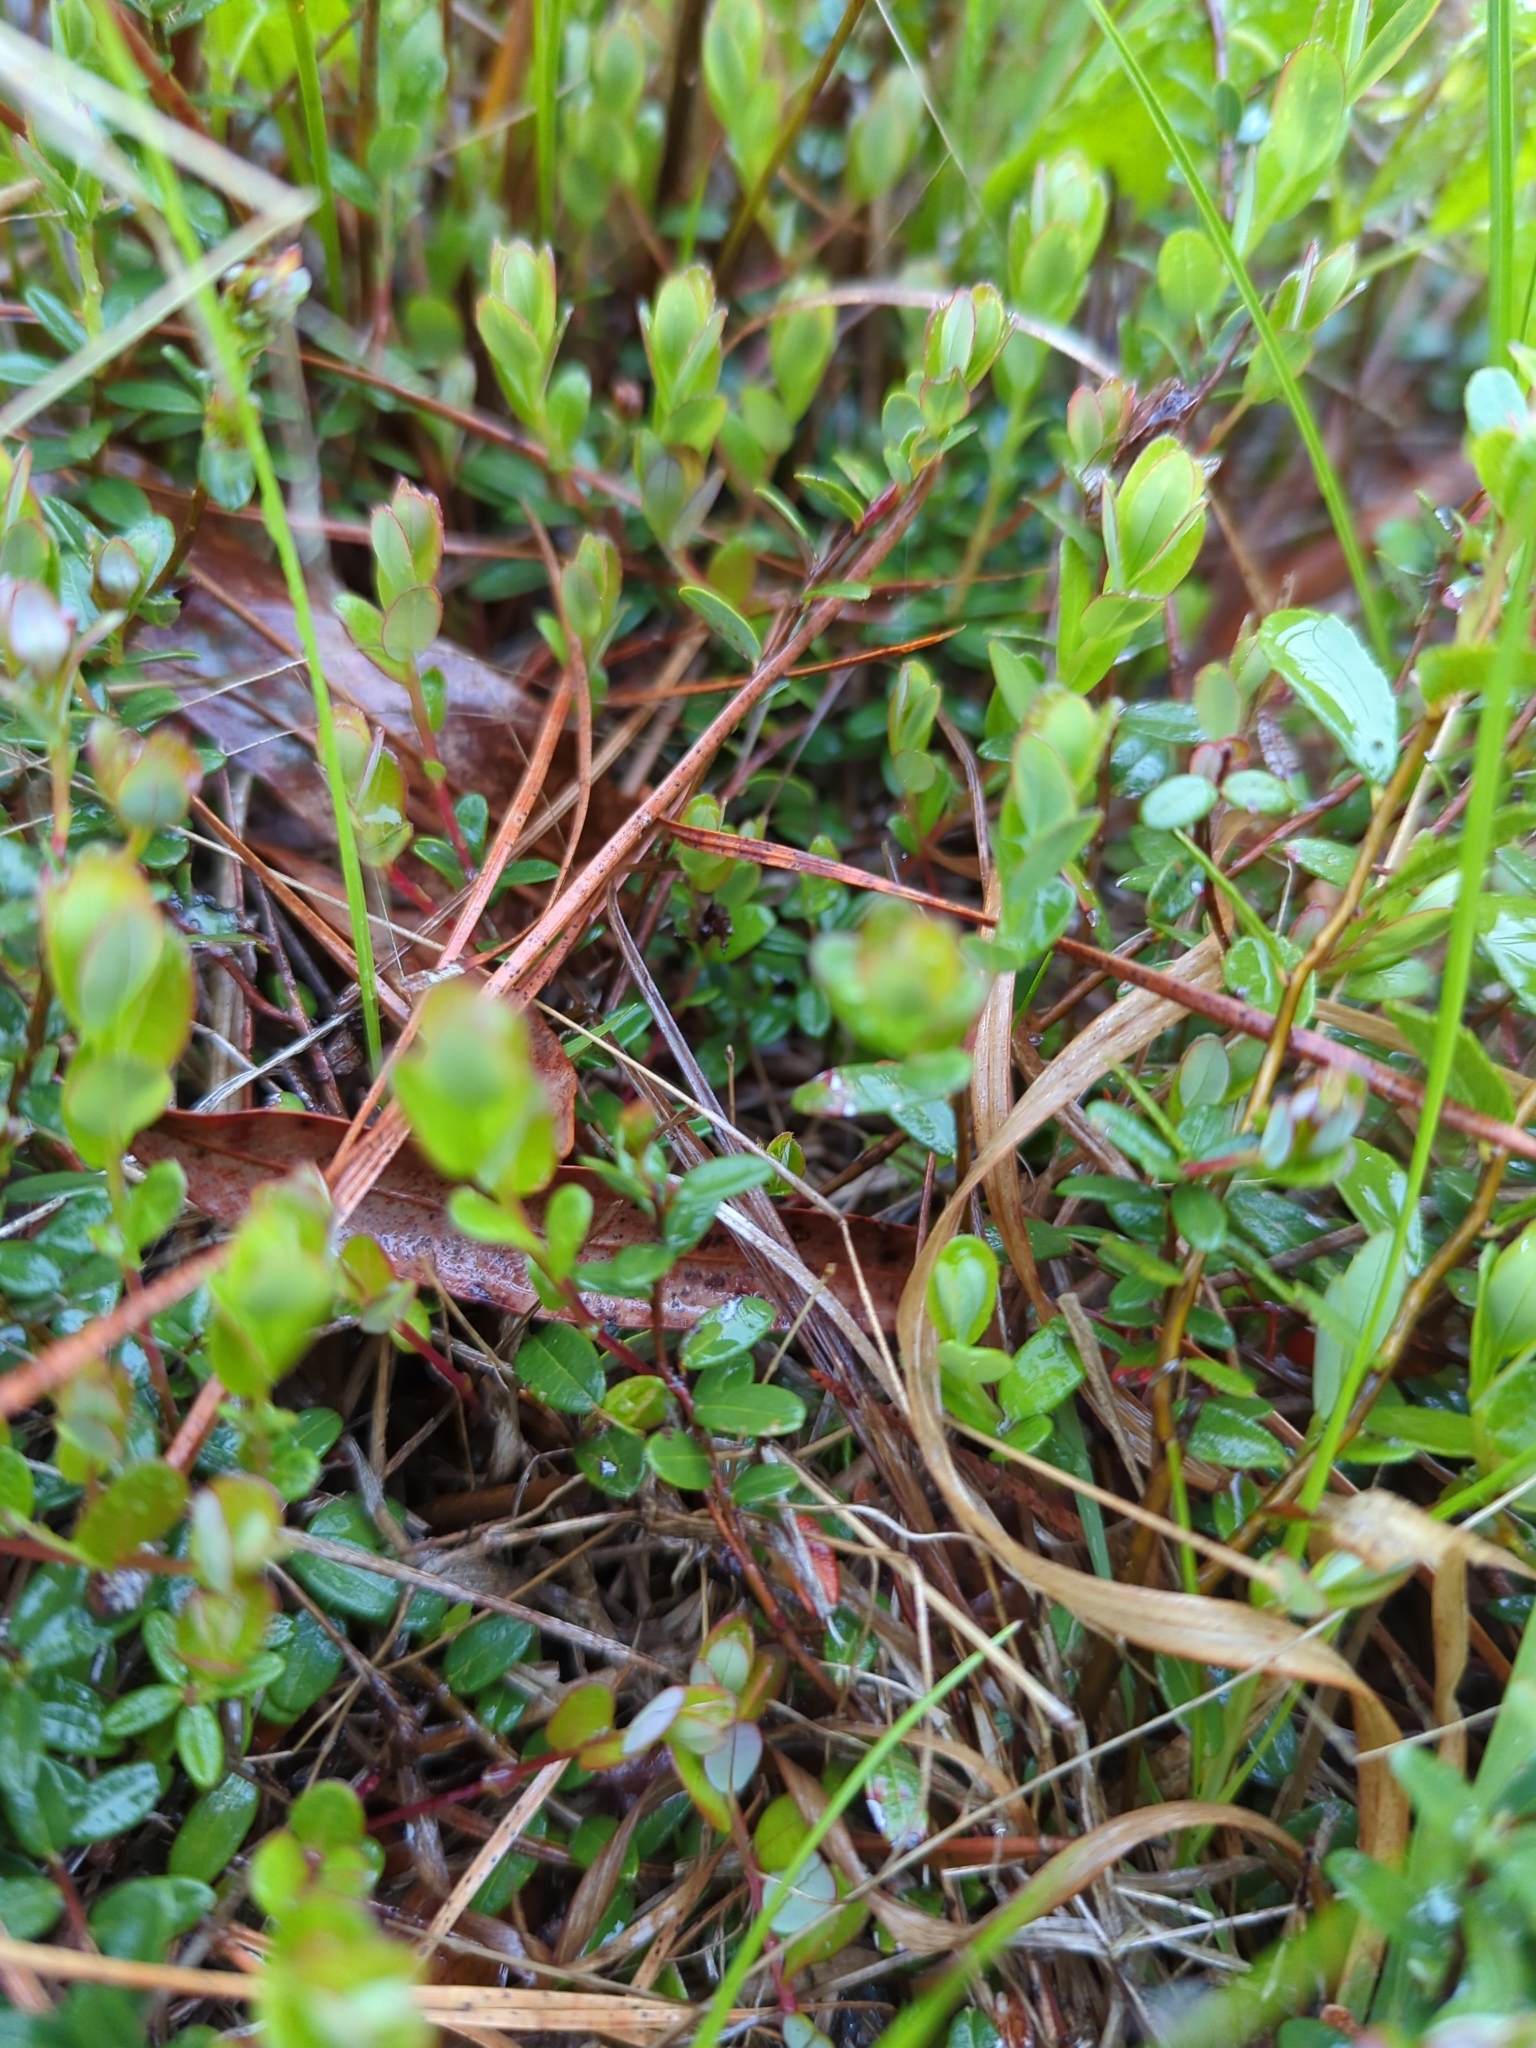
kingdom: Plantae
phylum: Tracheophyta
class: Magnoliopsida
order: Ericales
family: Ericaceae
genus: Vaccinium
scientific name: Vaccinium macrocarpon
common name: American cranberry
